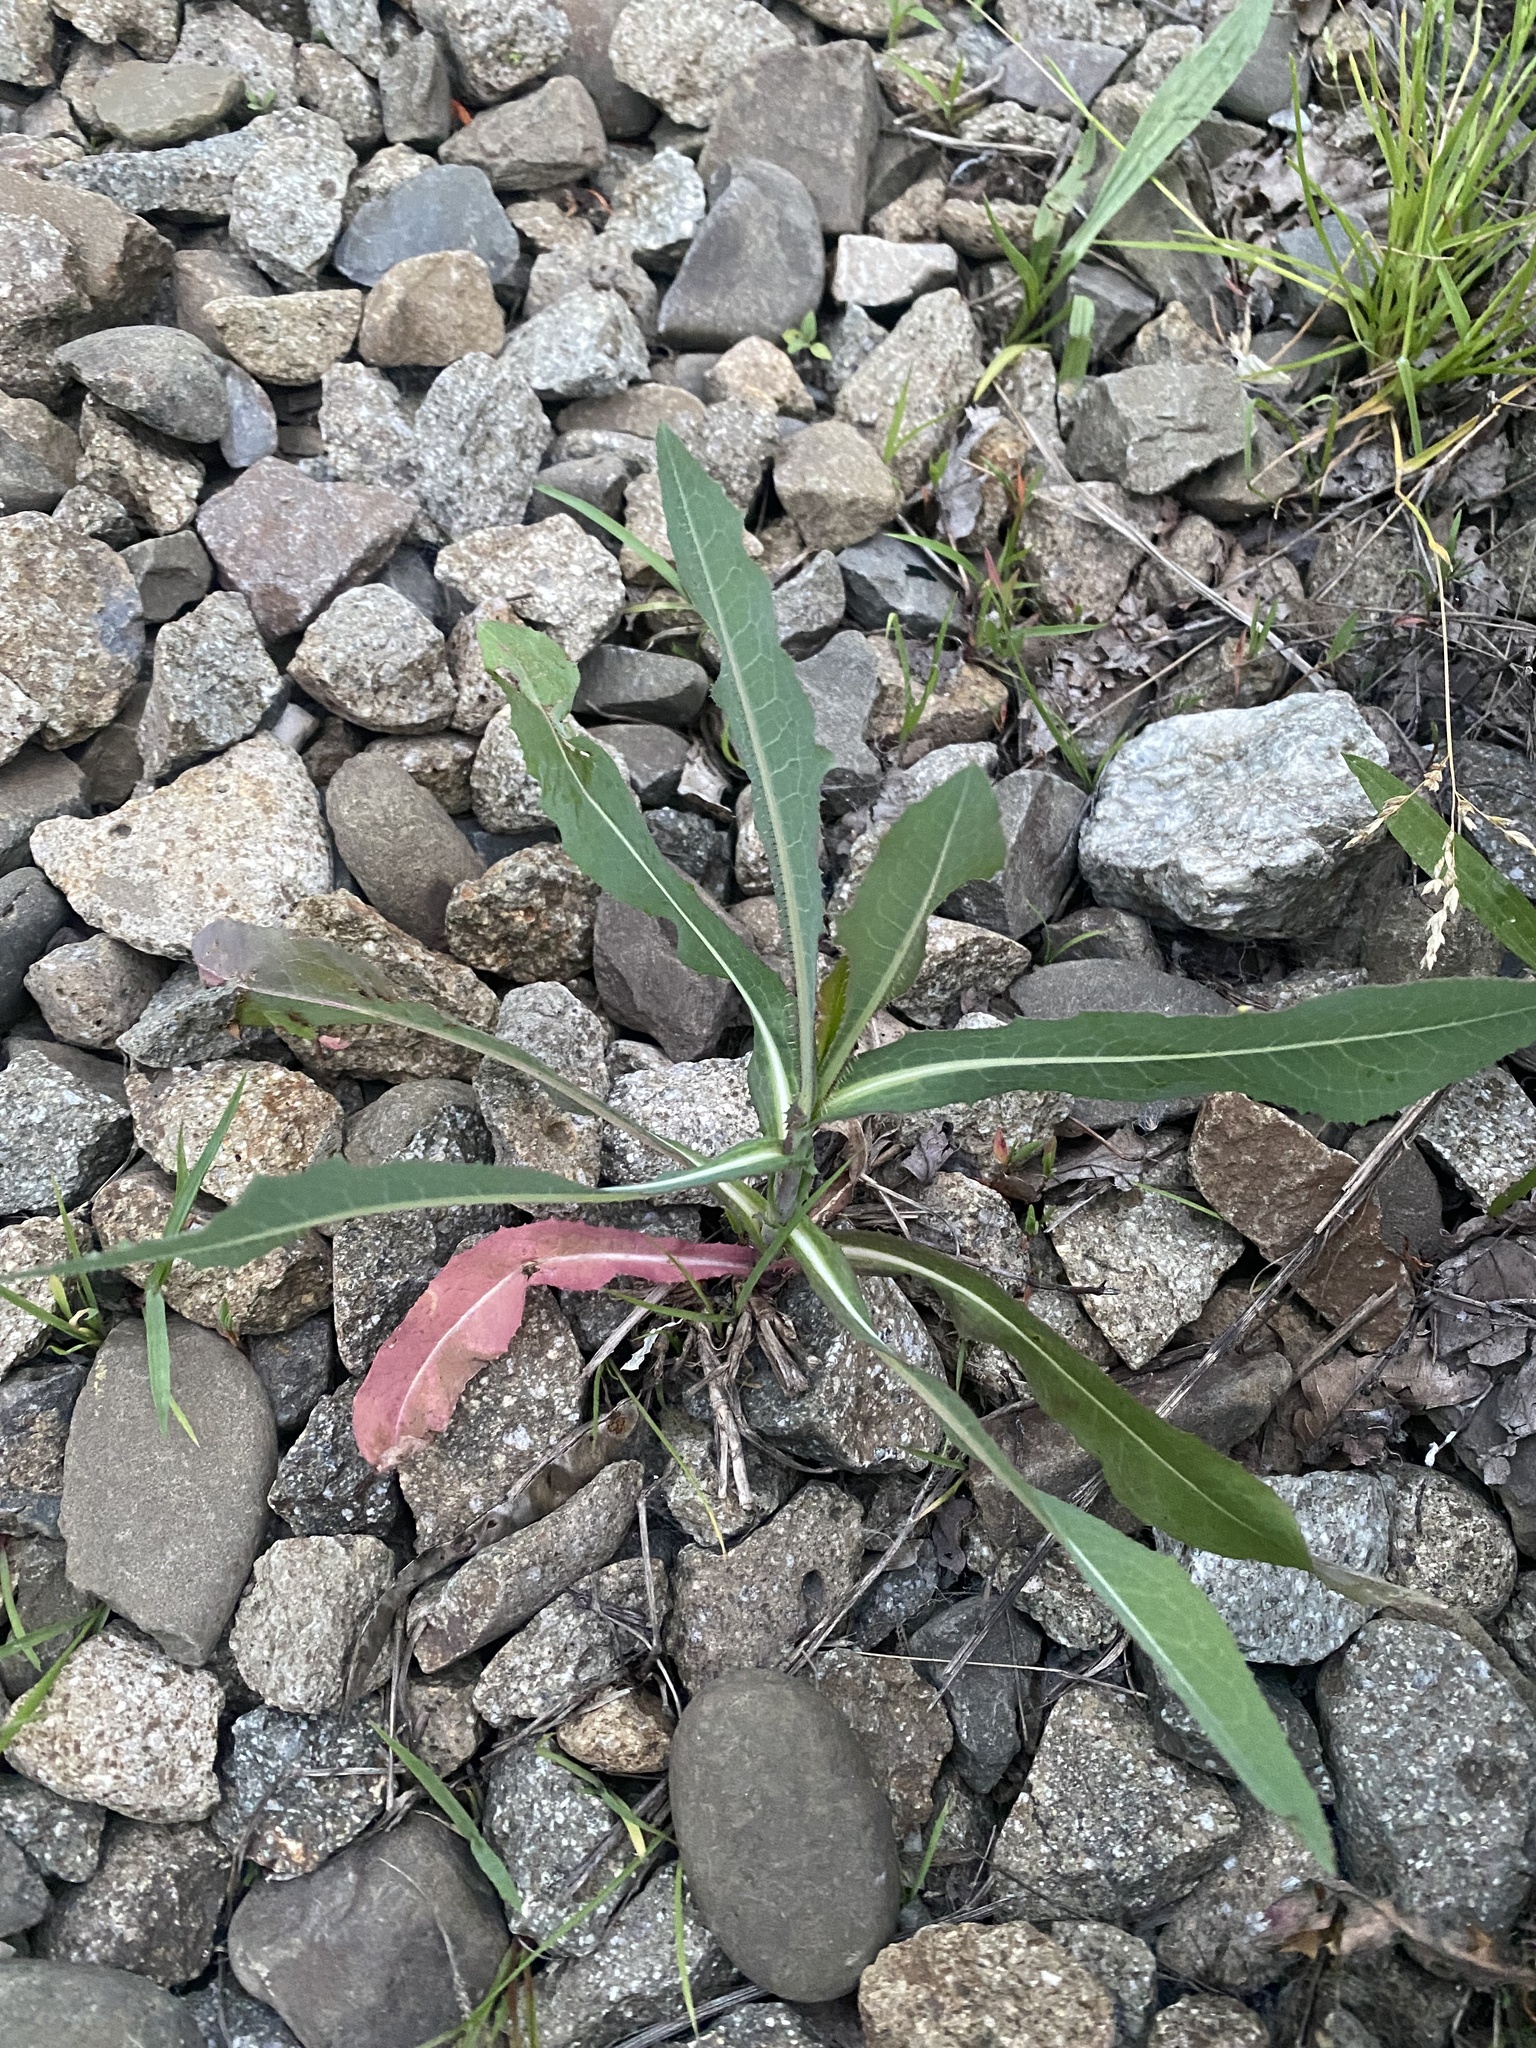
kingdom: Plantae
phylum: Tracheophyta
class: Magnoliopsida
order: Asterales
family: Asteraceae
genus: Lactuca
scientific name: Lactuca serriola
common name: Prickly lettuce
